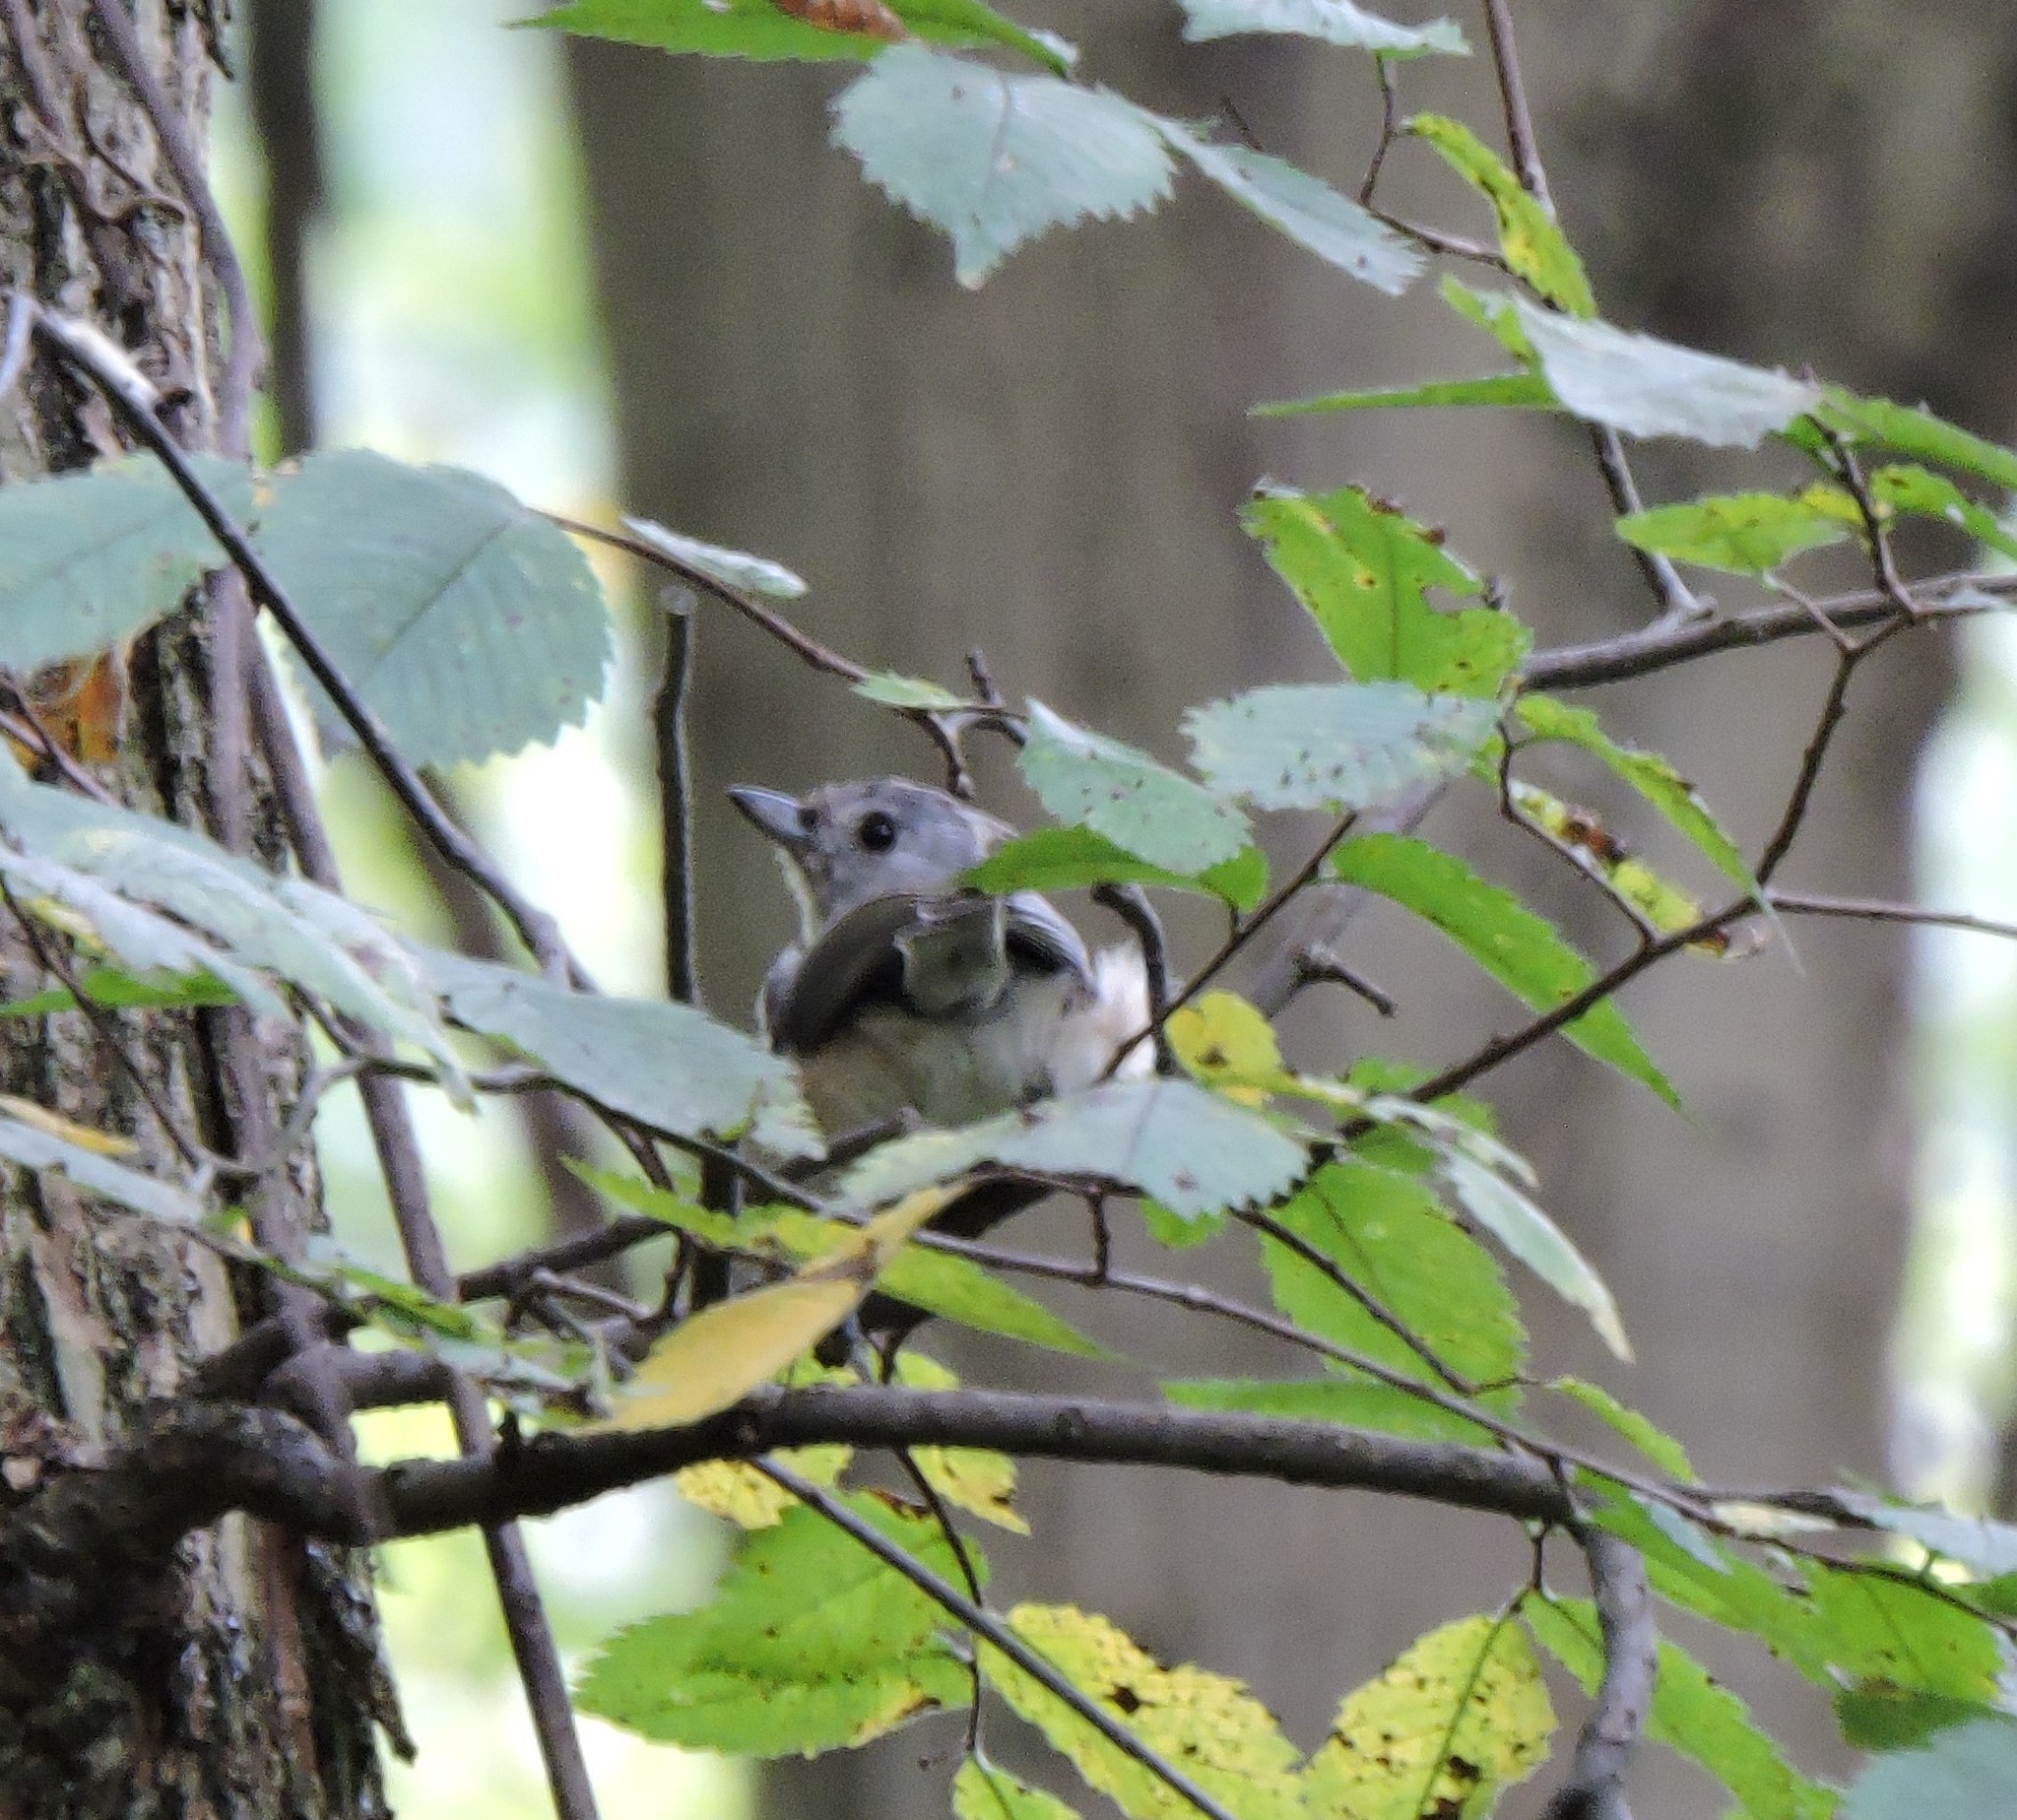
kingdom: Animalia
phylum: Chordata
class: Aves
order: Passeriformes
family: Paridae
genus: Baeolophus
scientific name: Baeolophus bicolor
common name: Tufted titmouse
